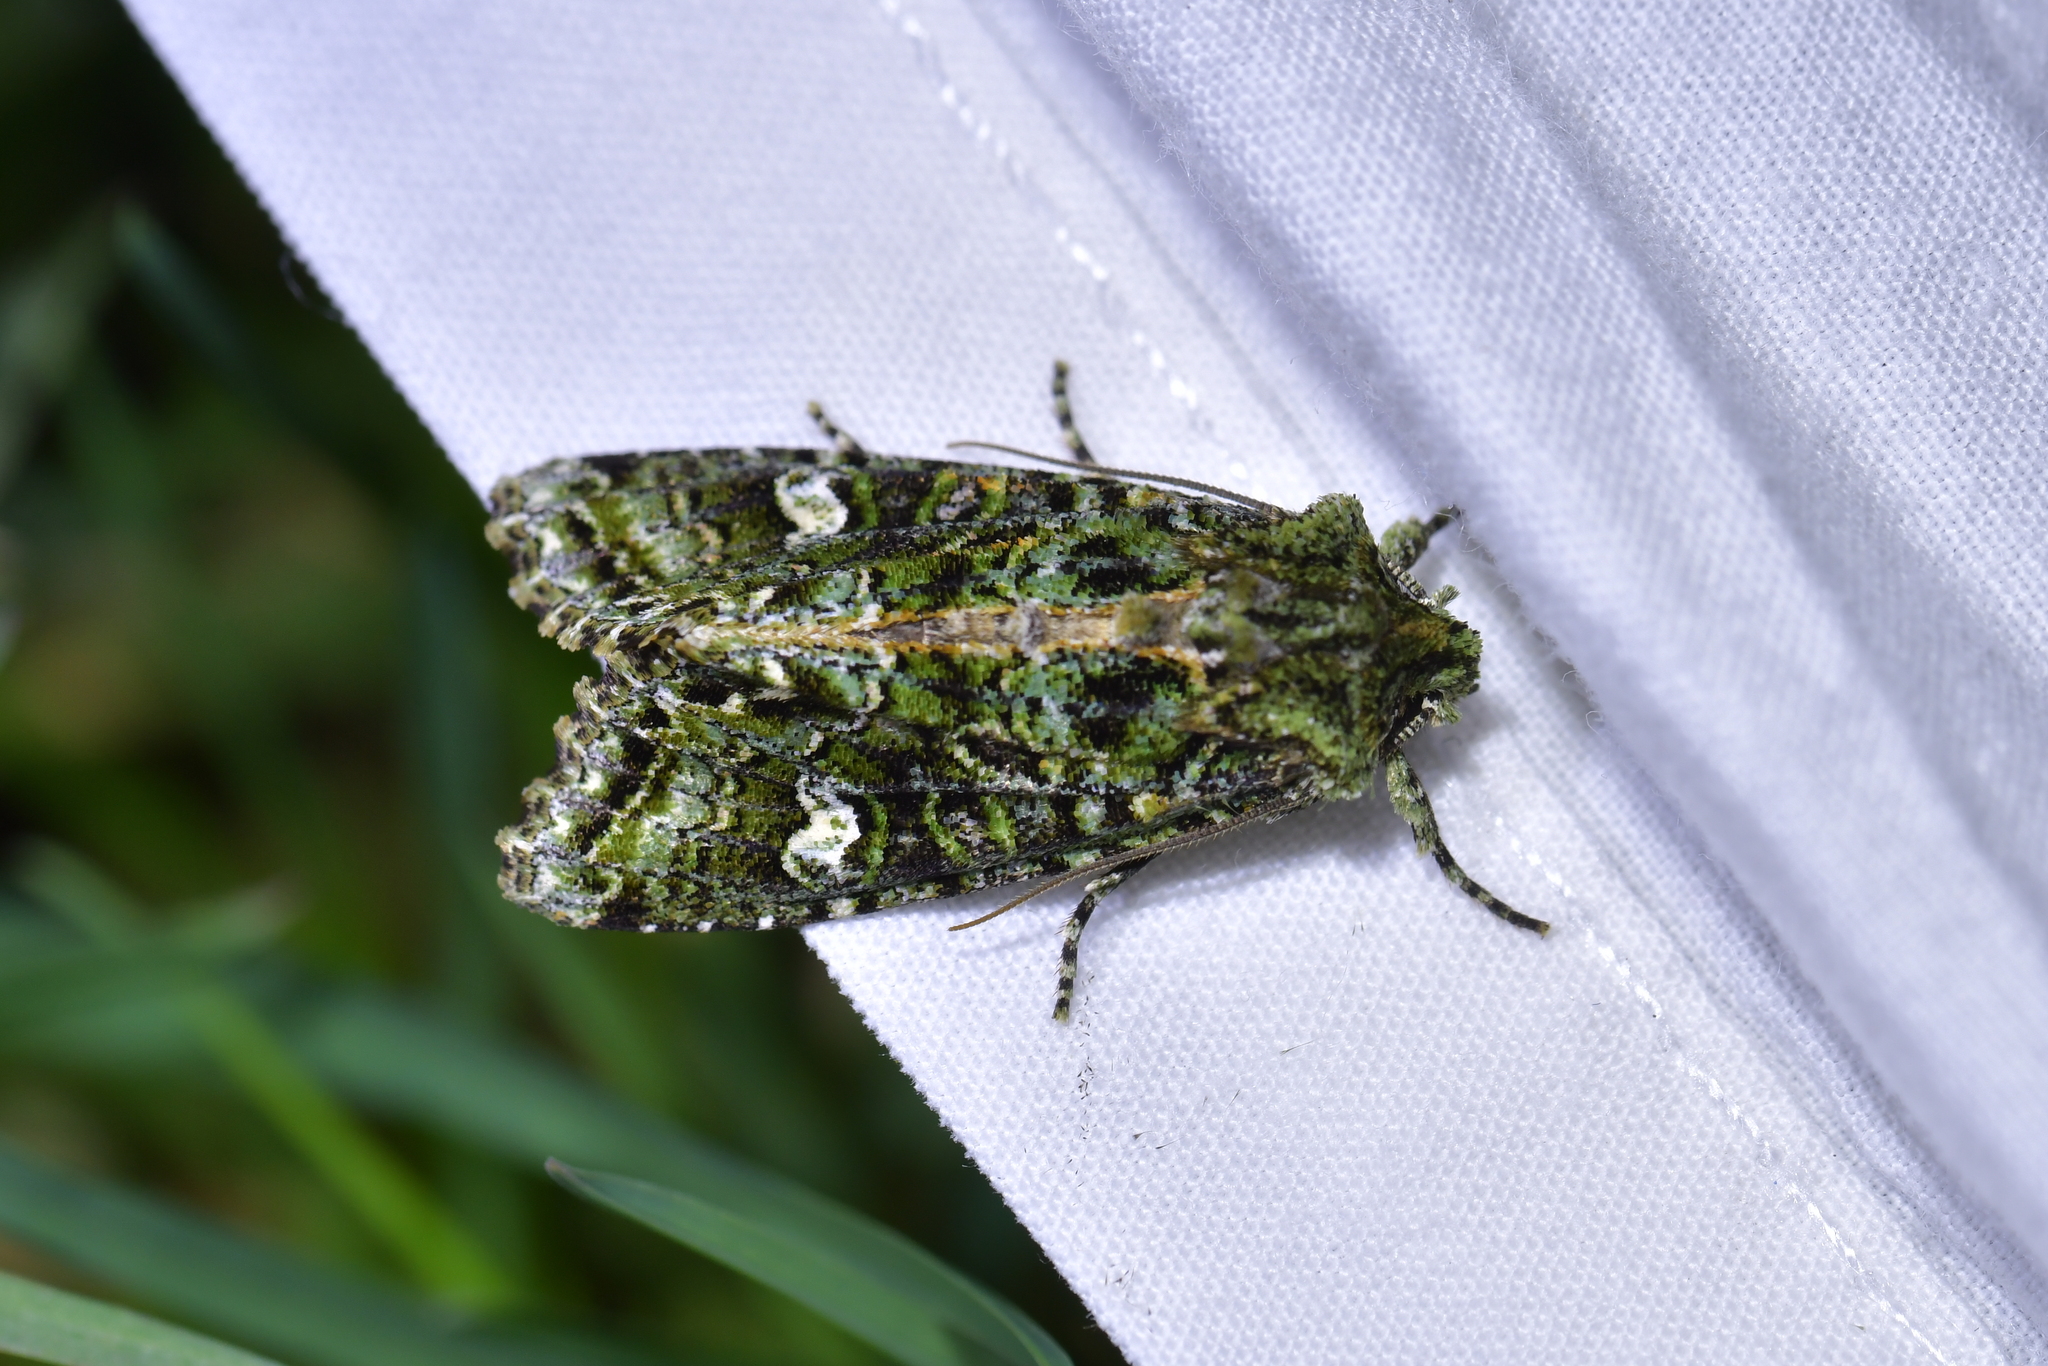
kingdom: Animalia
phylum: Arthropoda
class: Insecta
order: Lepidoptera
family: Noctuidae
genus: Ichneutica
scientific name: Ichneutica
